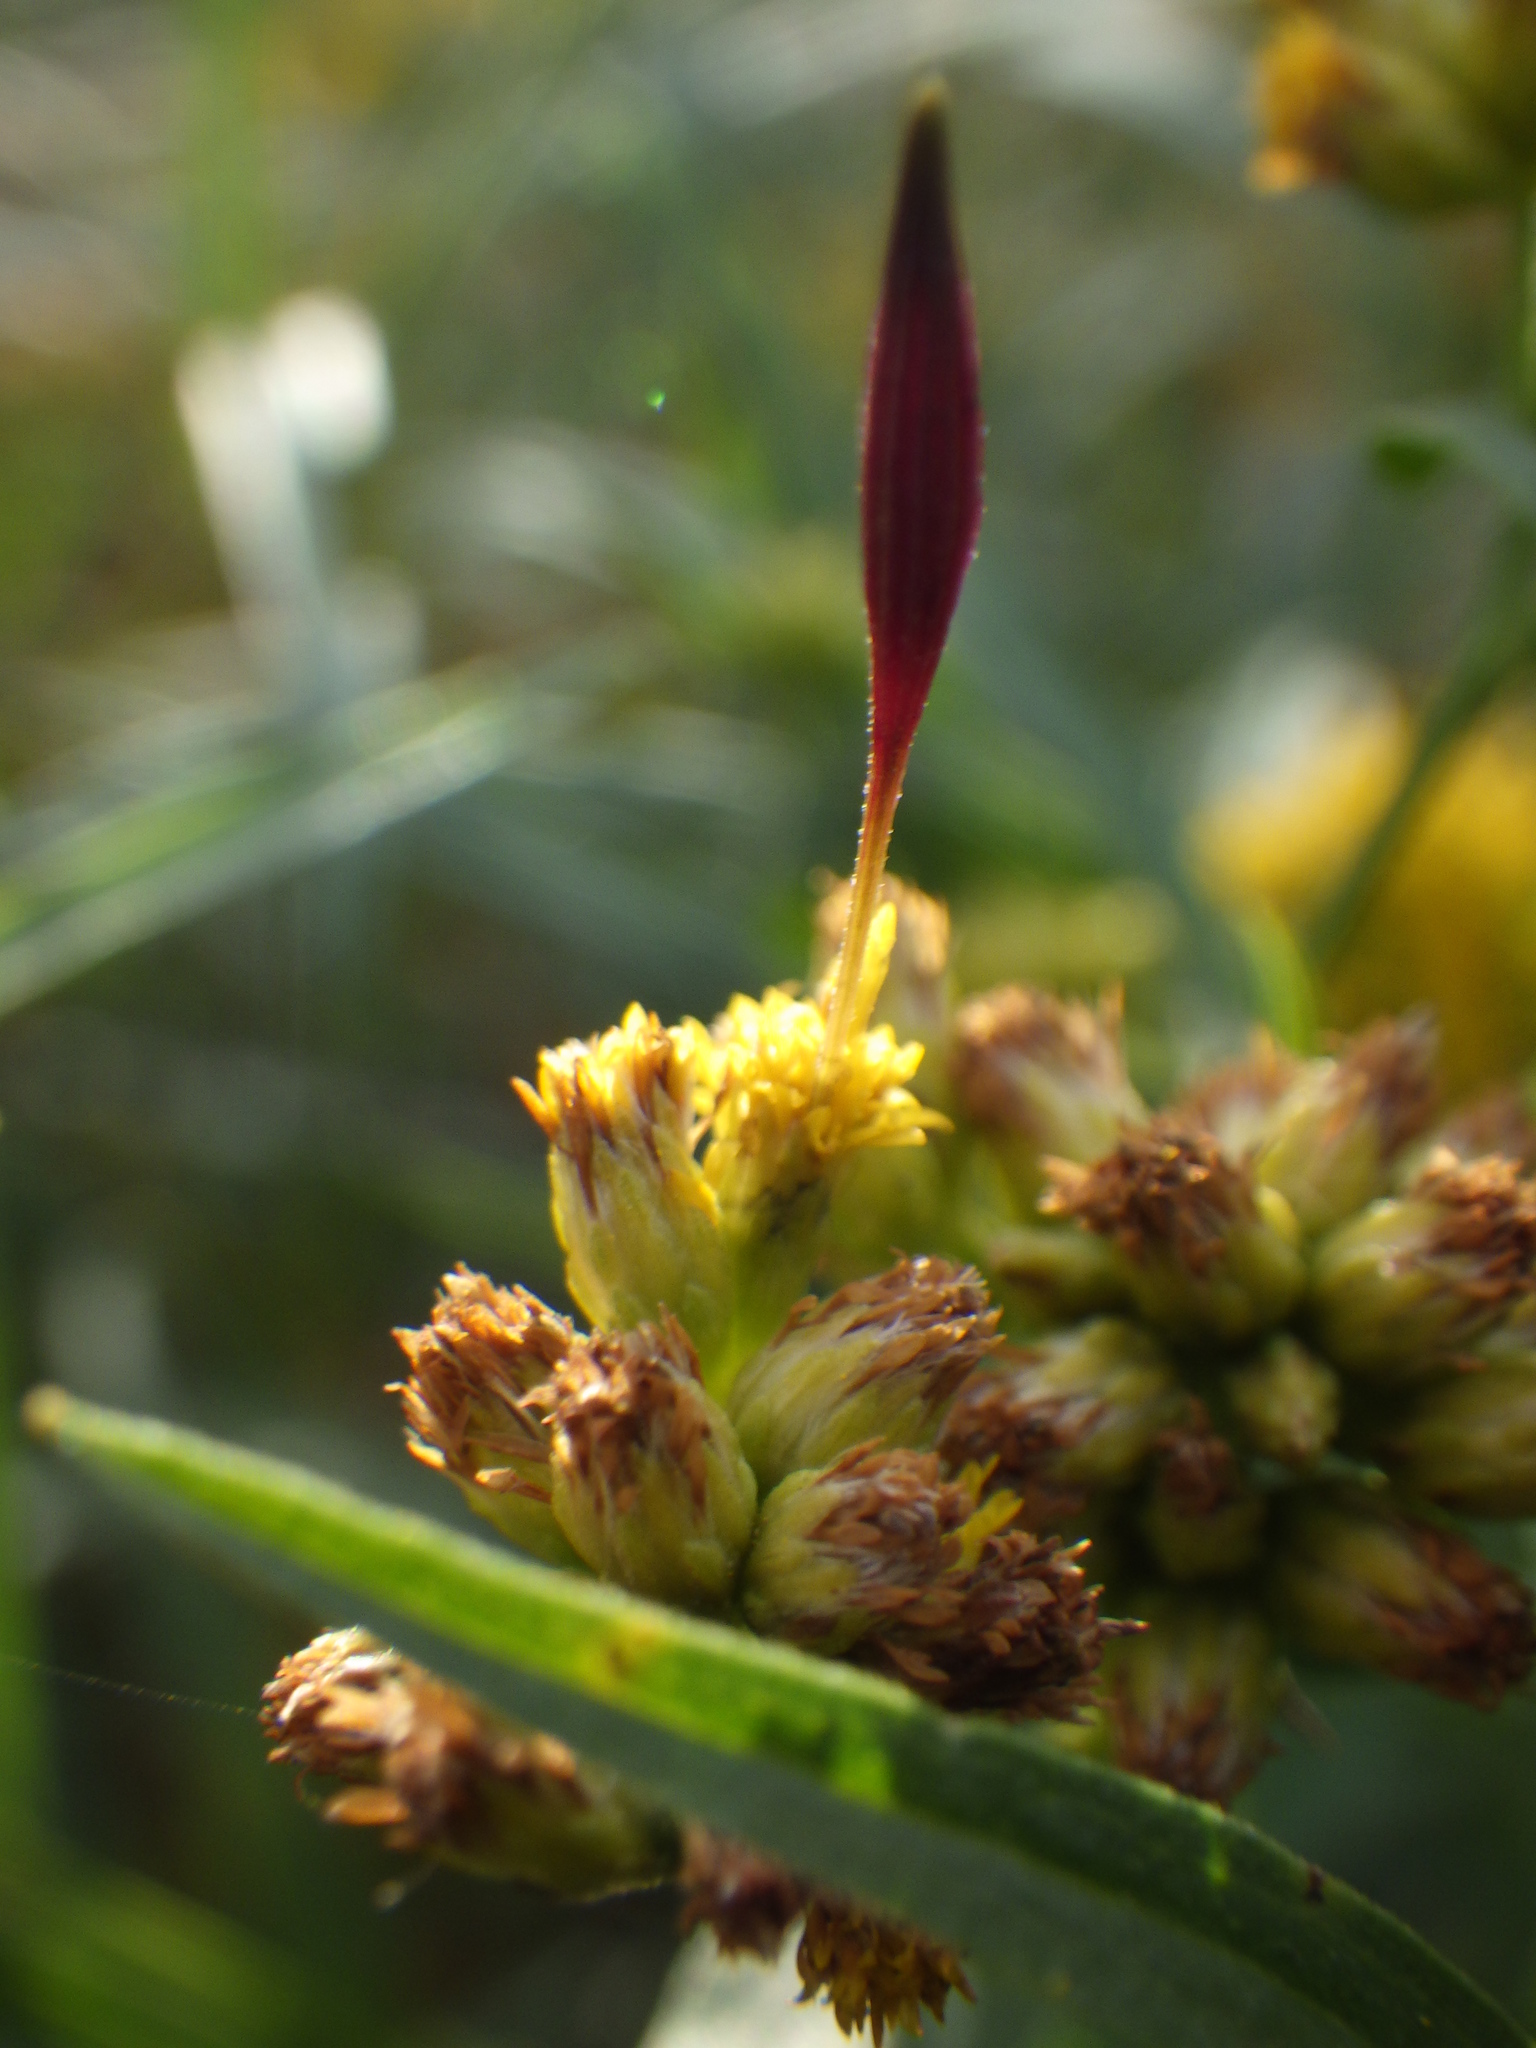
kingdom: Animalia
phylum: Arthropoda
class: Insecta
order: Diptera
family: Cecidomyiidae
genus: Rhopalomyia
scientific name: Rhopalomyia pedicellata
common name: Goldentop pedicellate gall midge
